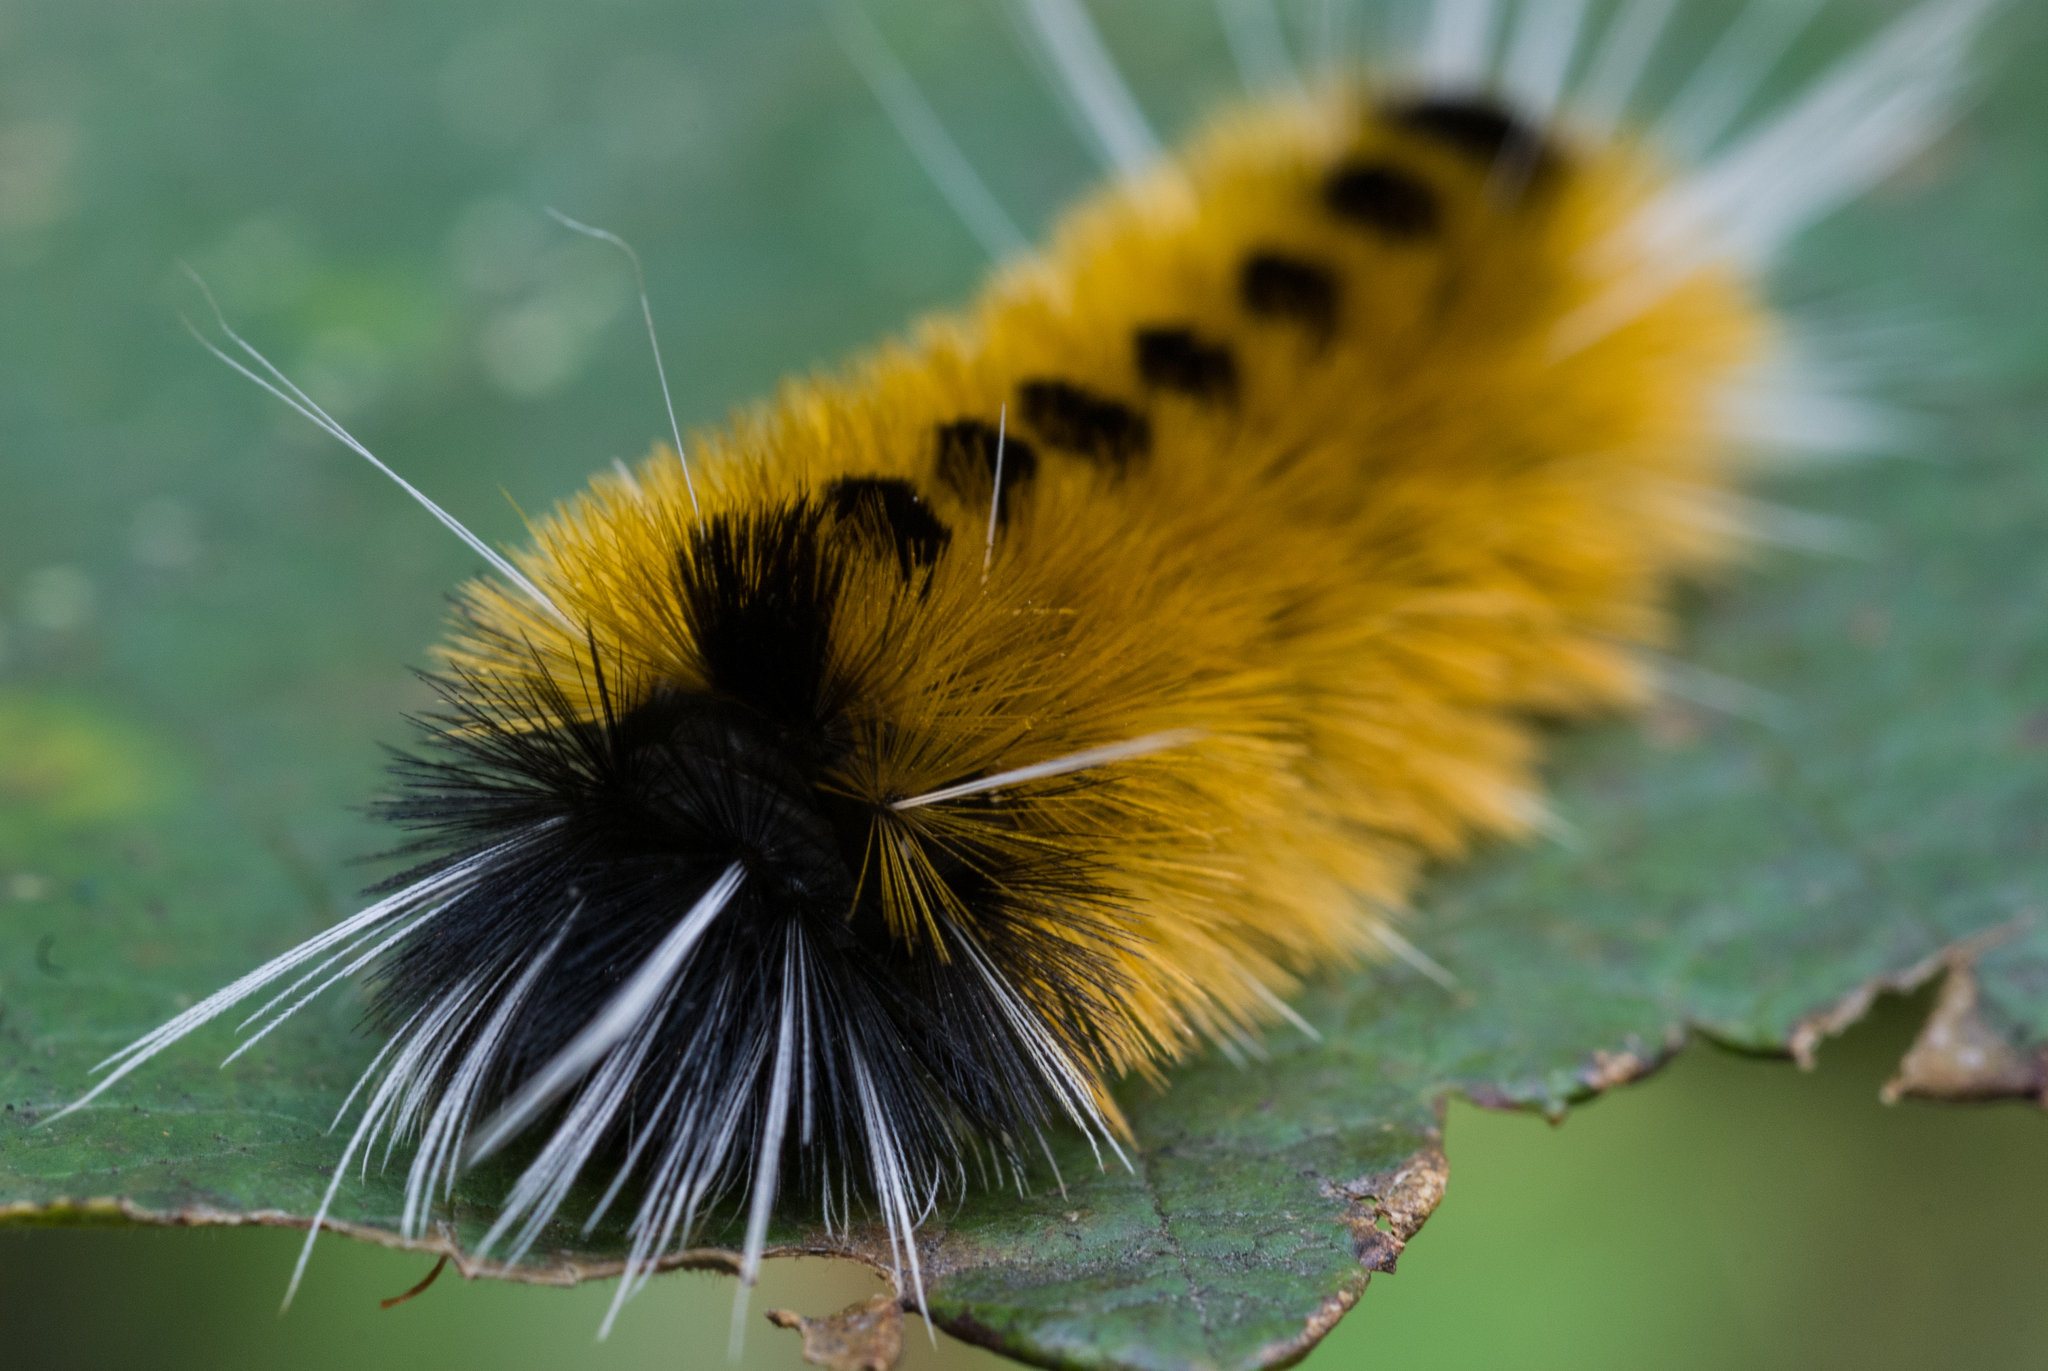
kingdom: Animalia
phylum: Arthropoda
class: Insecta
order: Lepidoptera
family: Erebidae
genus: Lophocampa
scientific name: Lophocampa maculata
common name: Spotted tussock moth
